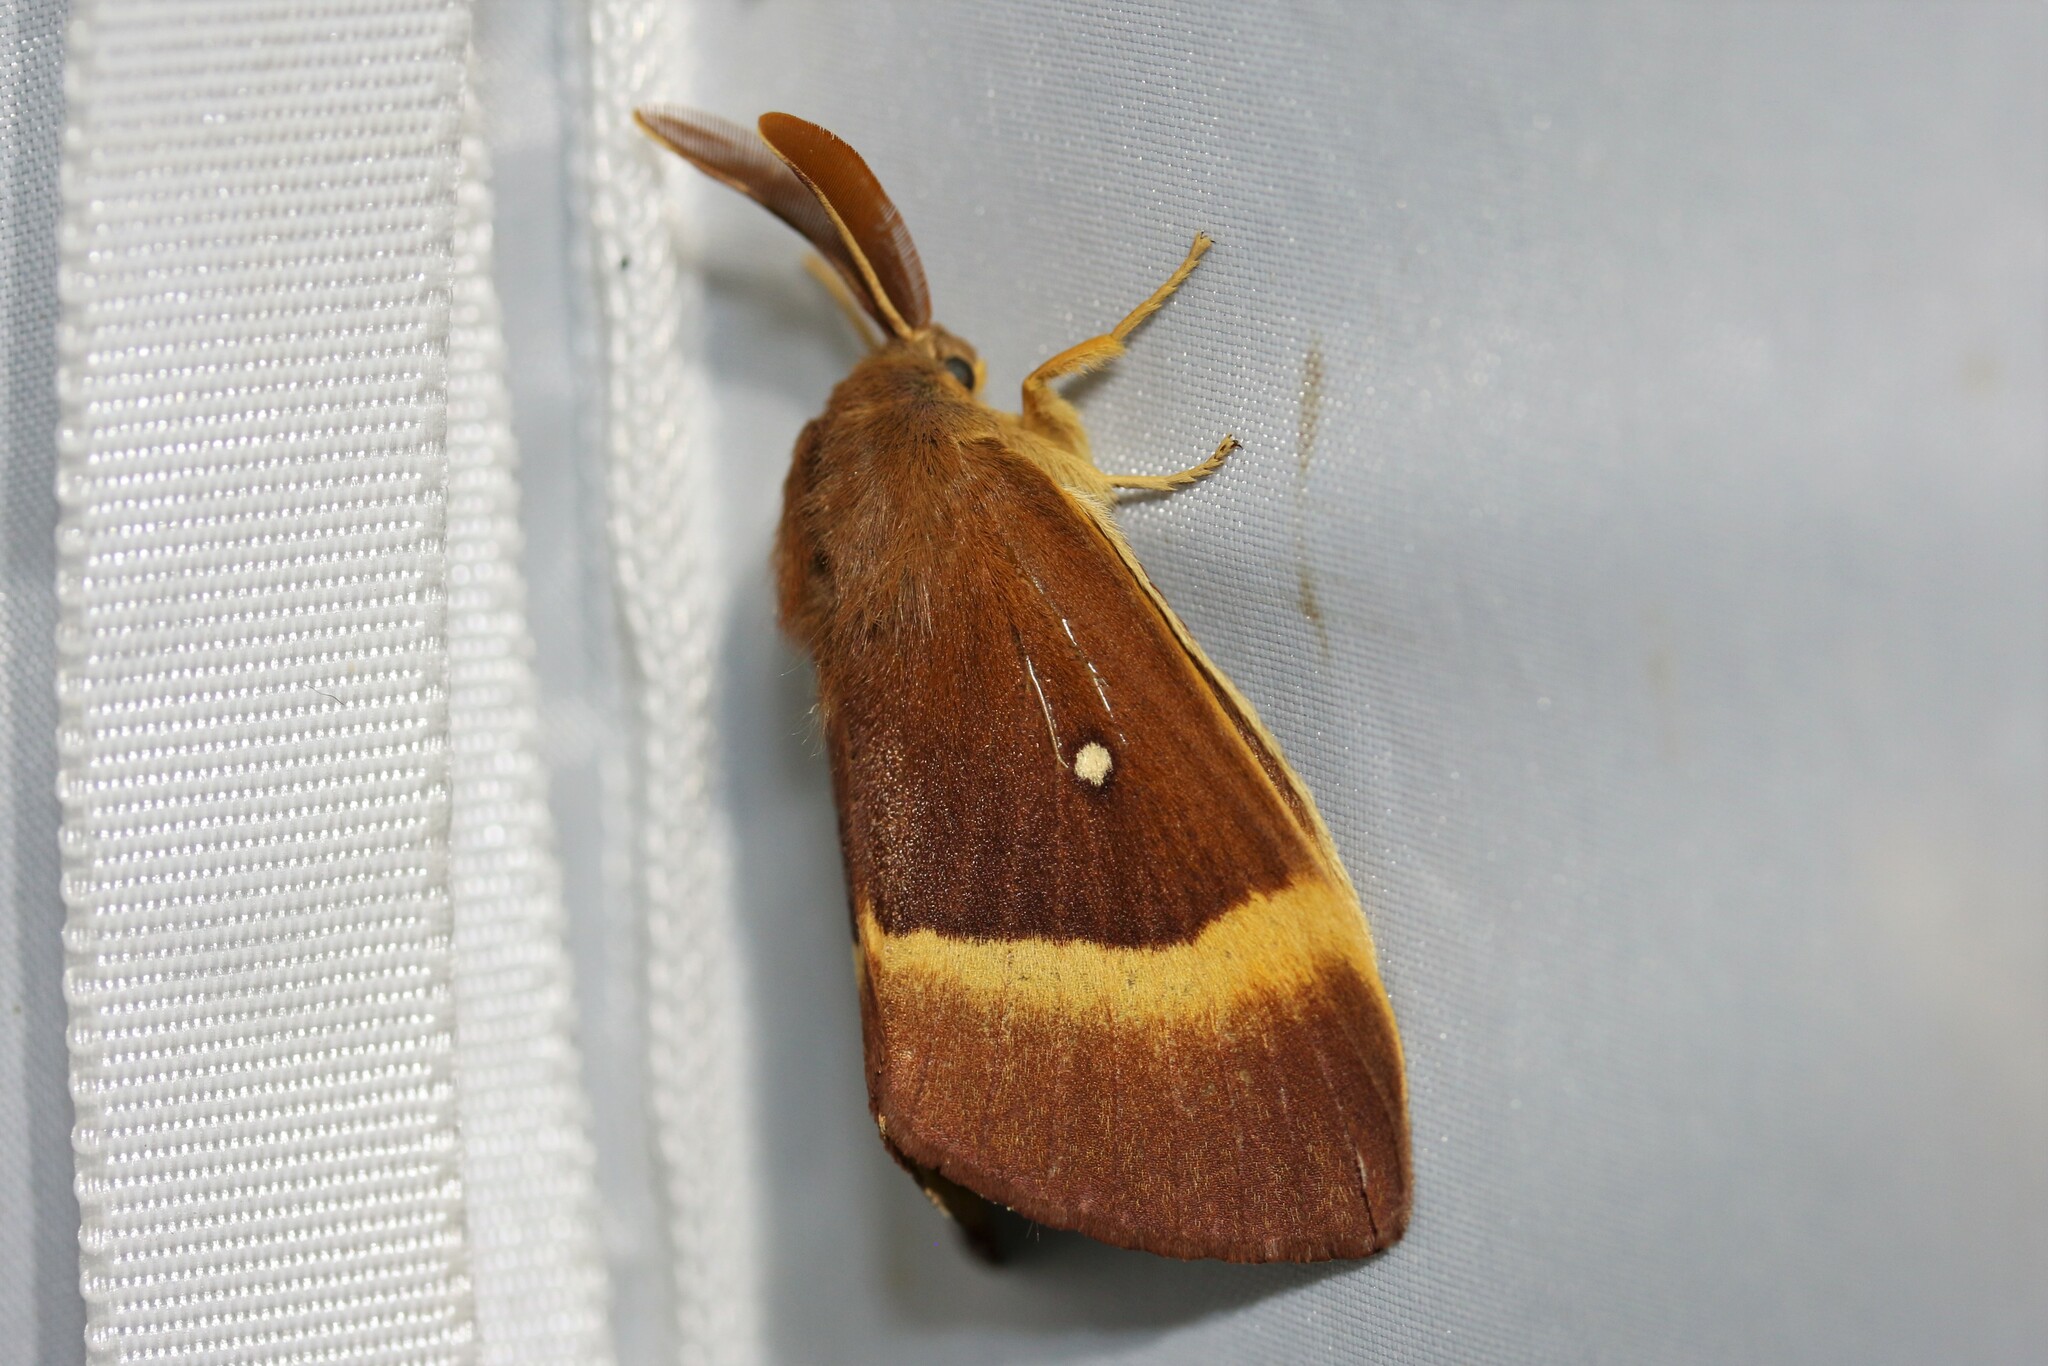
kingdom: Animalia
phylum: Arthropoda
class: Insecta
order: Lepidoptera
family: Lasiocampidae
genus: Lasiocampa
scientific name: Lasiocampa quercus
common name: Oak eggar
